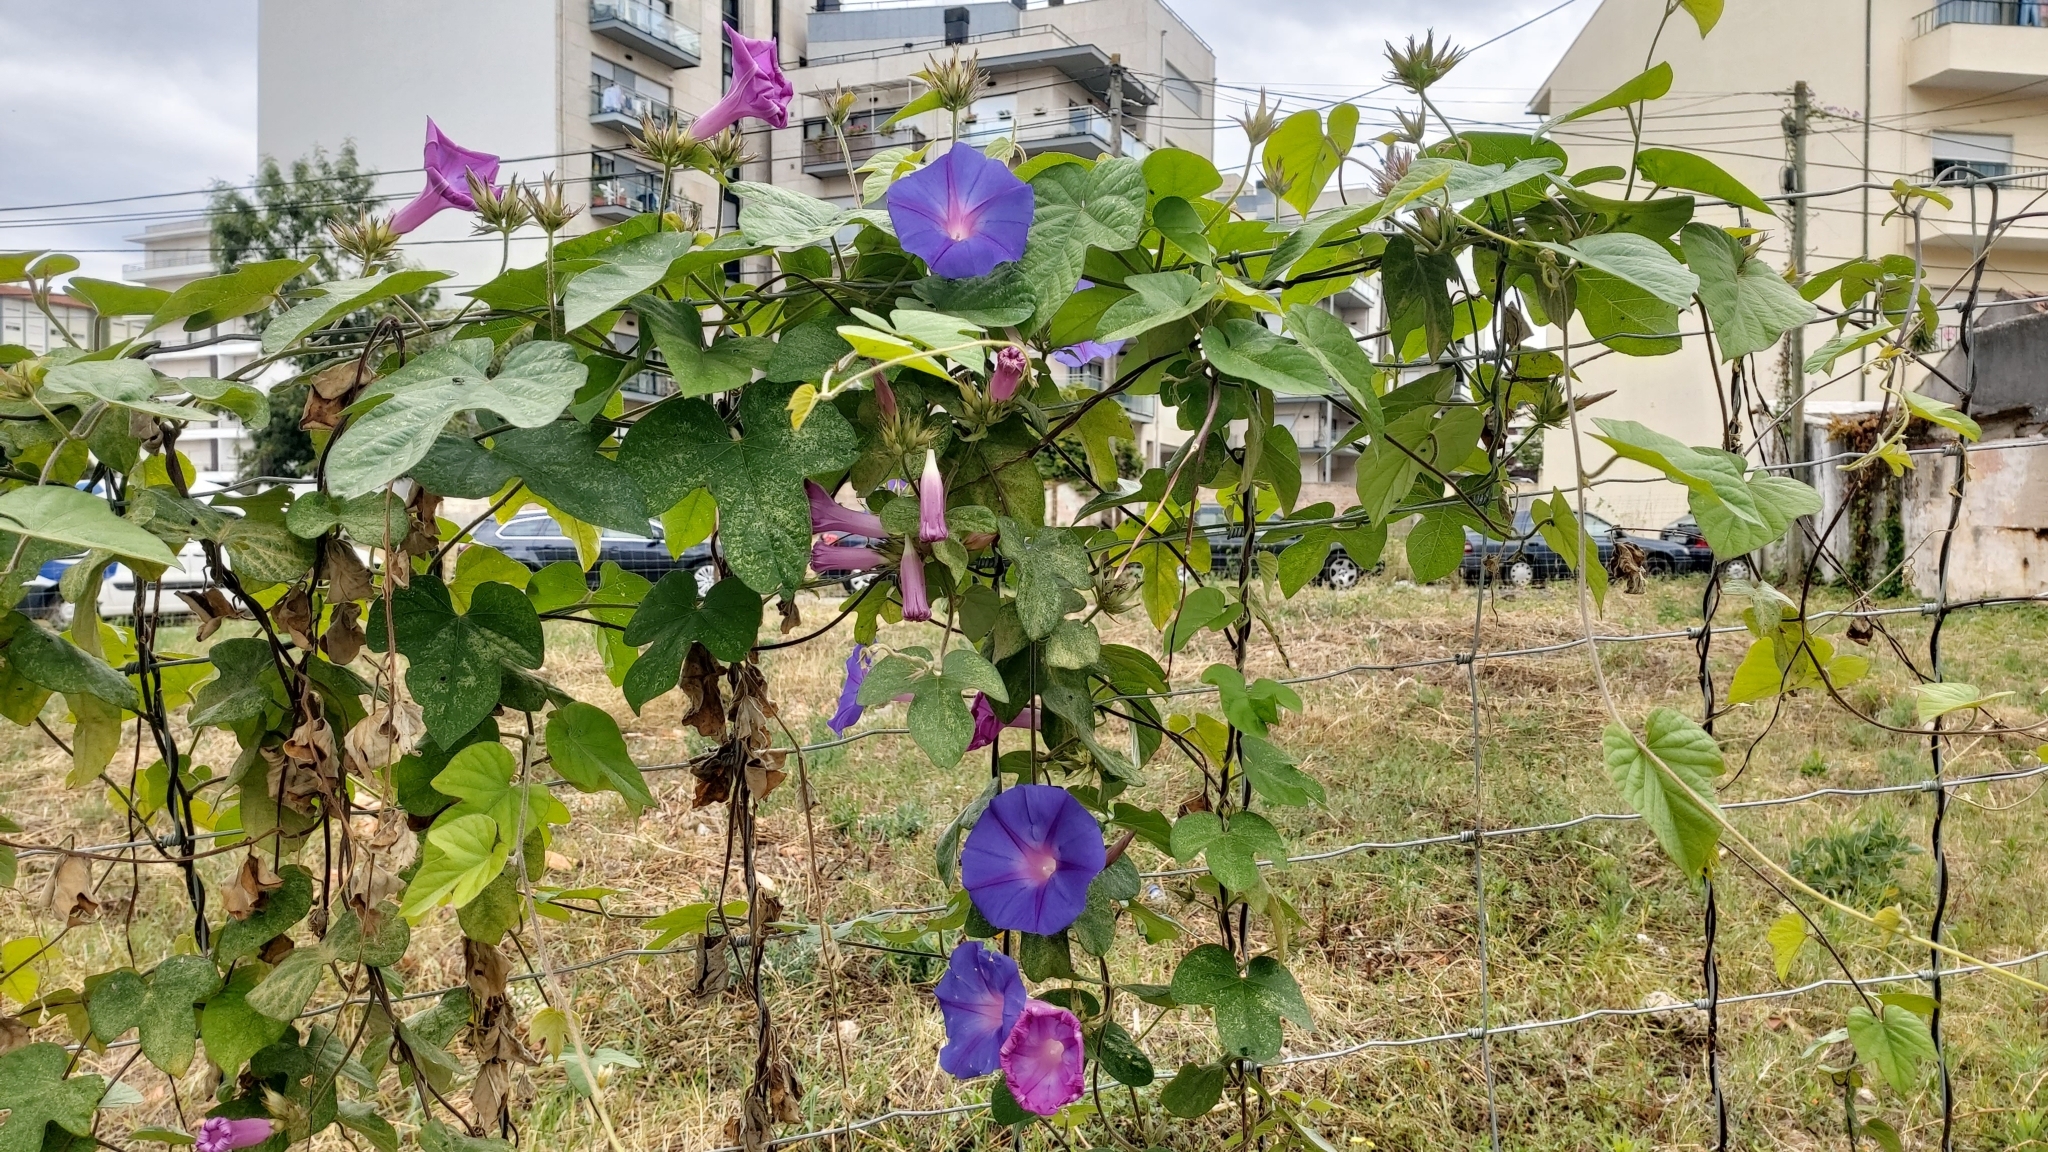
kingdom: Plantae
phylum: Tracheophyta
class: Magnoliopsida
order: Solanales
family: Convolvulaceae
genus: Ipomoea
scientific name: Ipomoea indica
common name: Blue dawnflower
